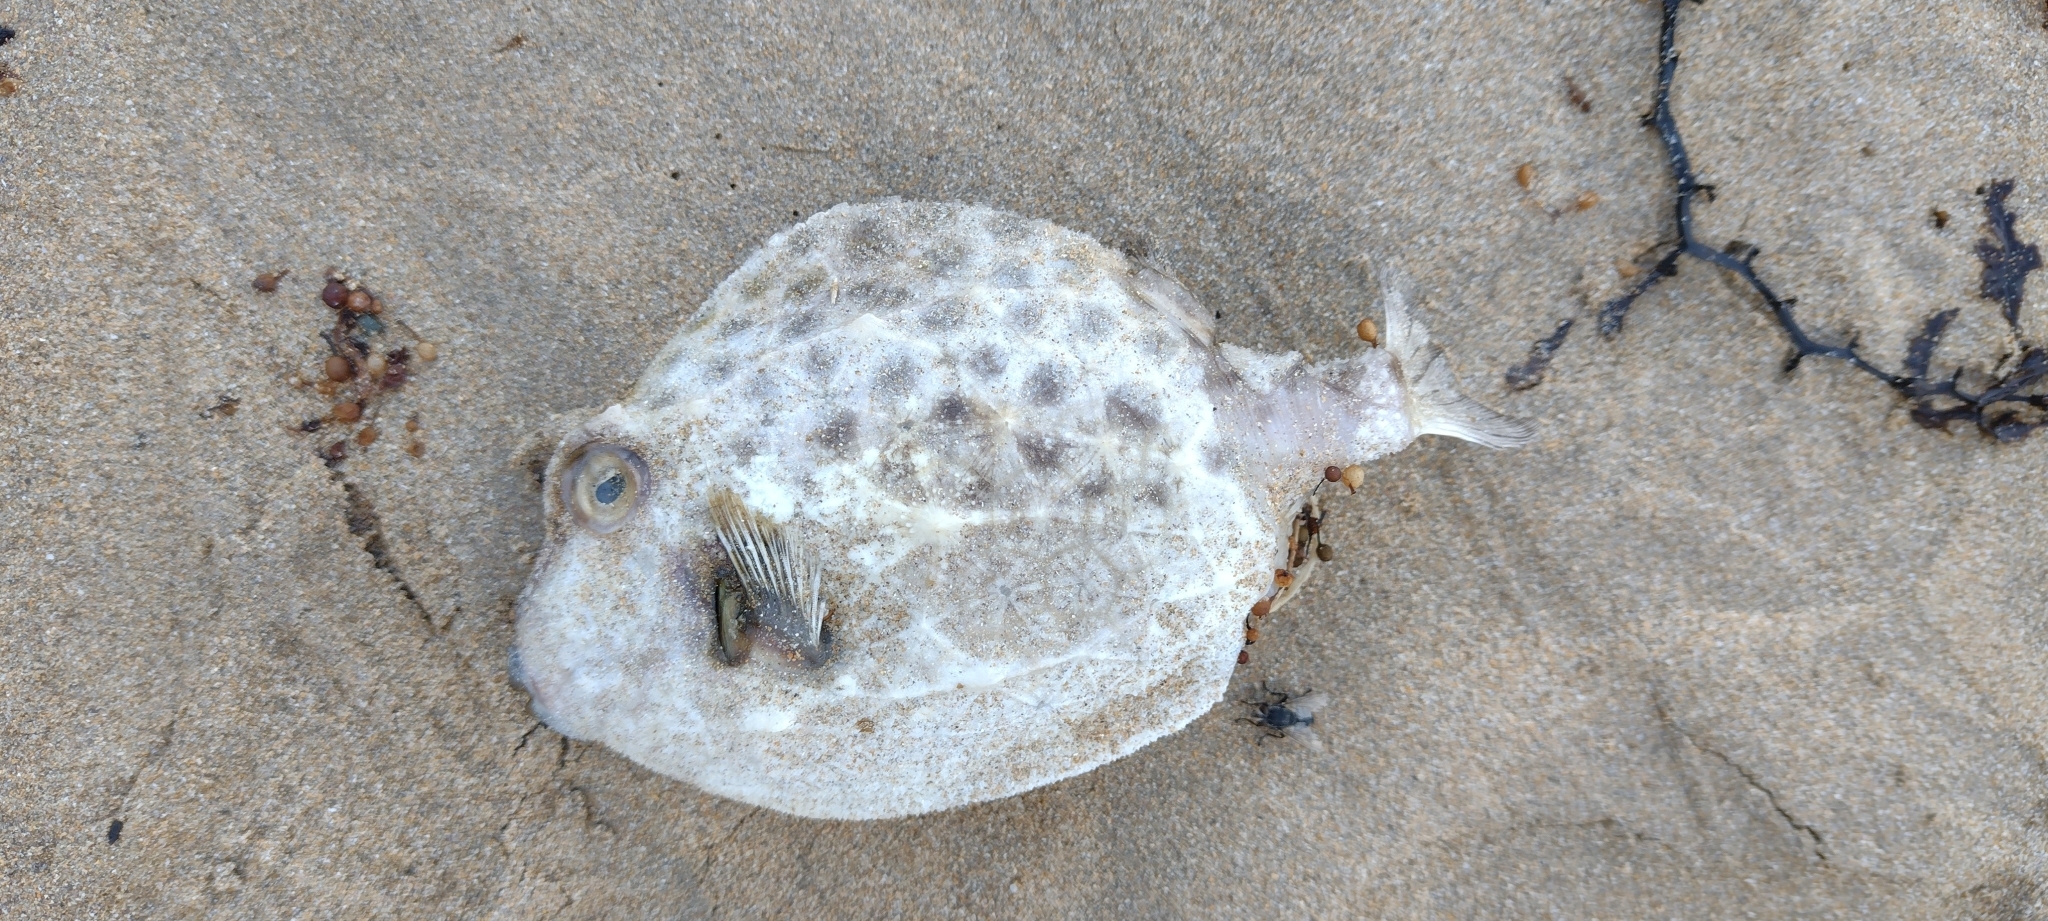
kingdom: Animalia
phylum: Chordata
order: Tetraodontiformes
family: Aracanidae
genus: Anoplocapros
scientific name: Anoplocapros inermis
